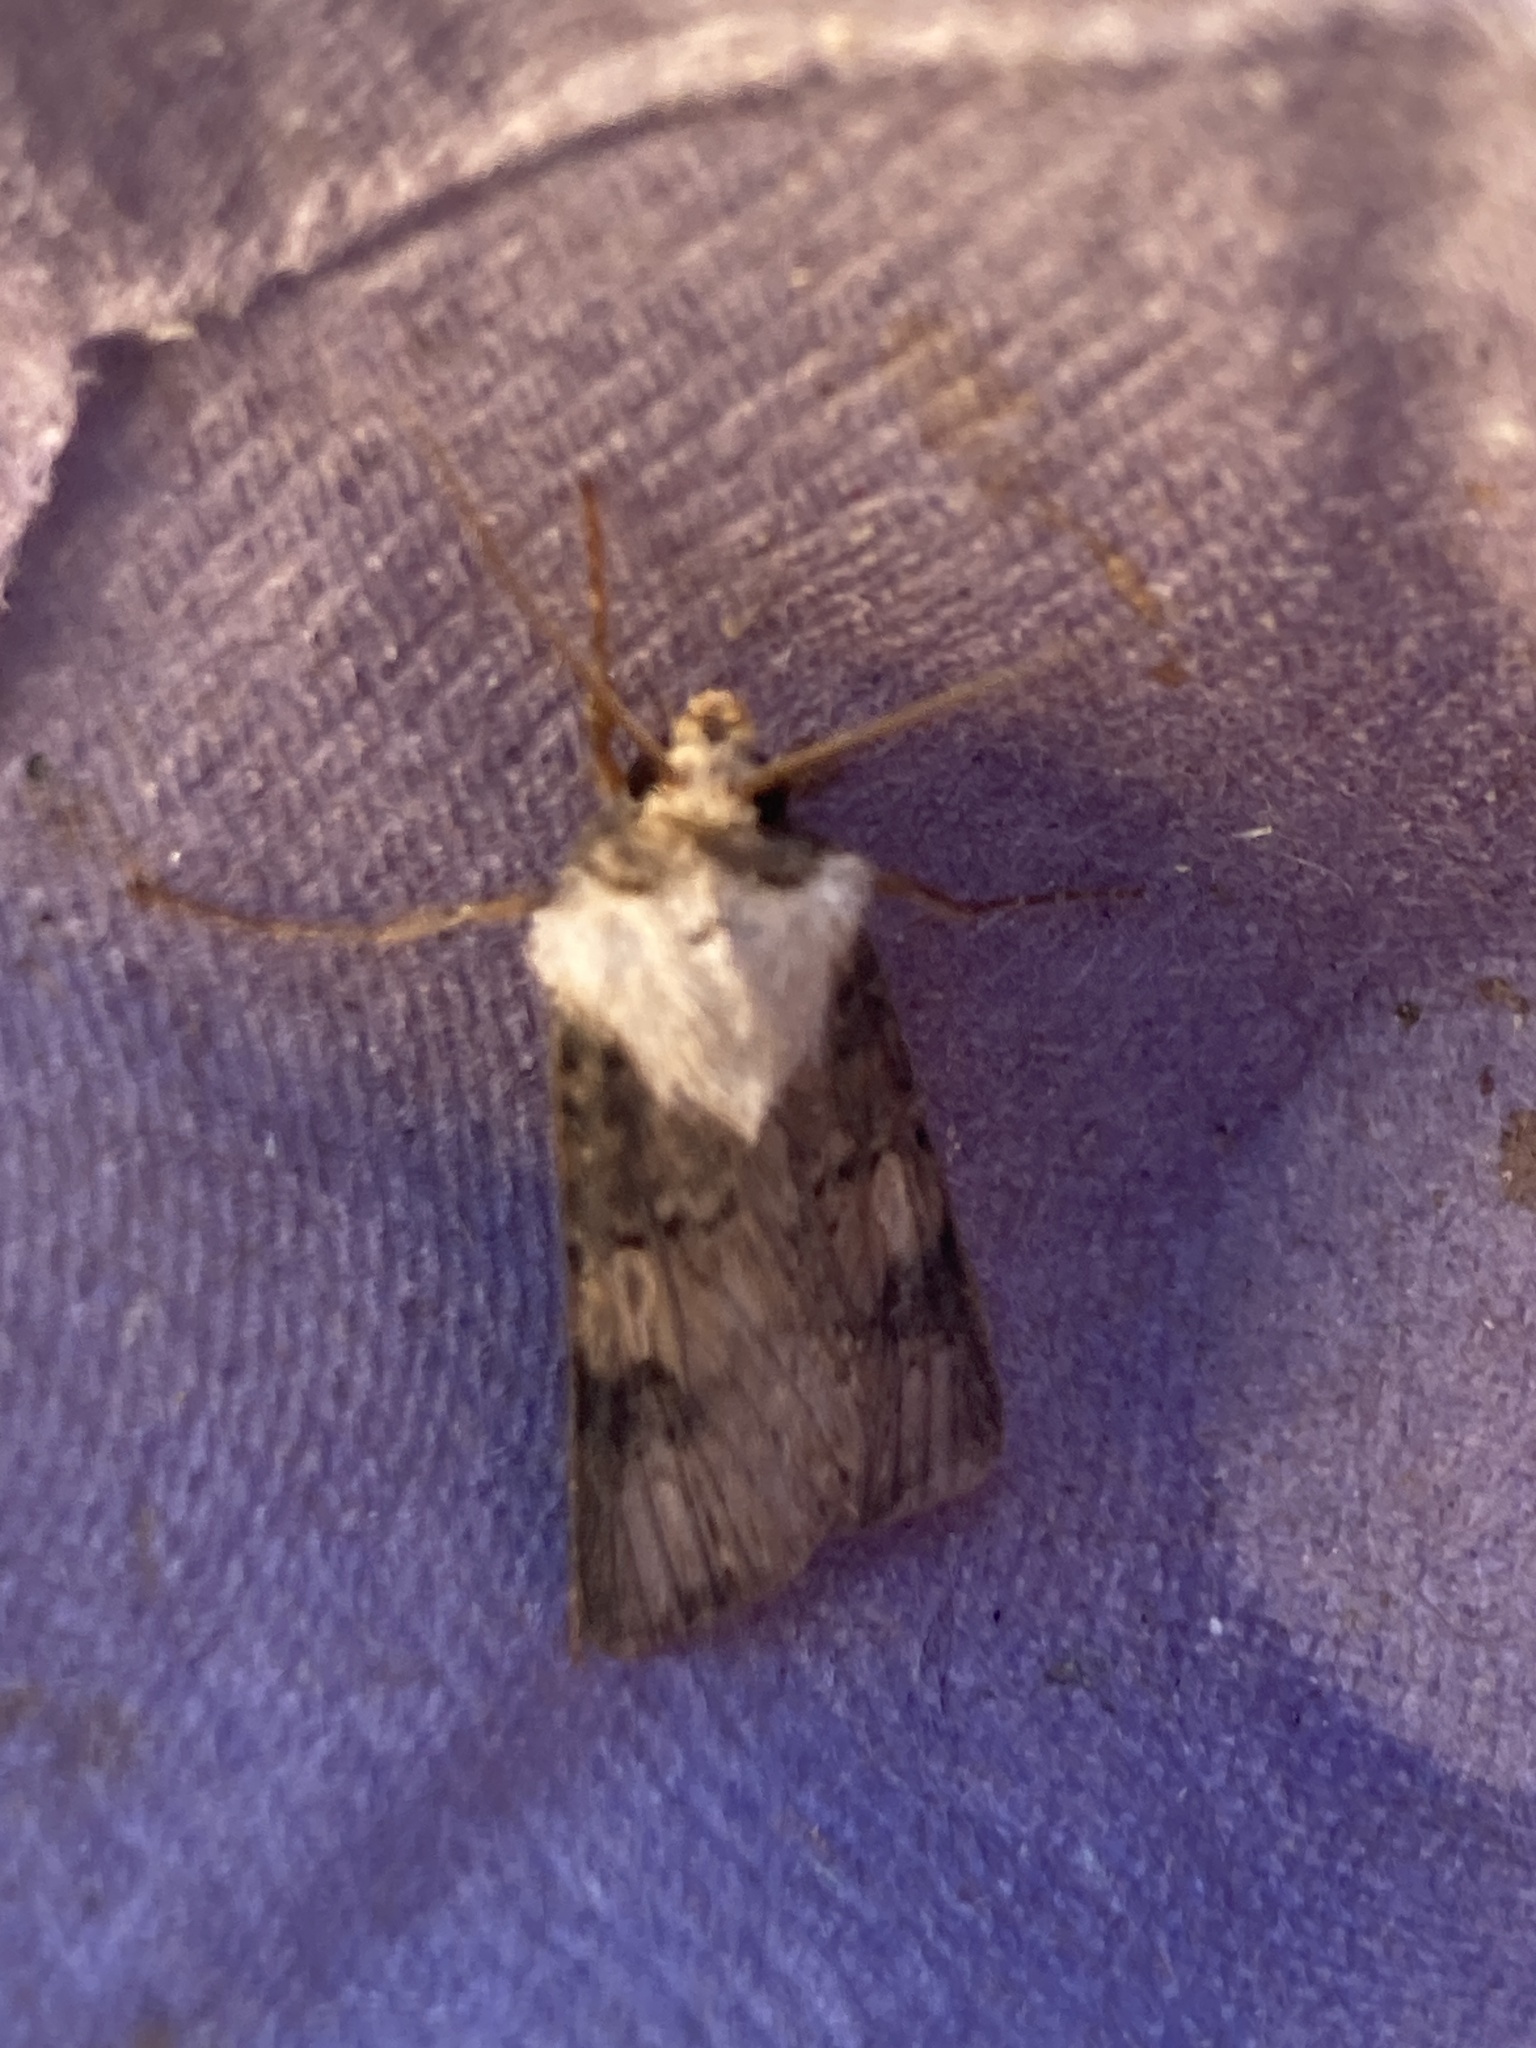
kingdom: Animalia
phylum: Arthropoda
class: Insecta
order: Lepidoptera
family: Noctuidae
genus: Agrotis
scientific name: Agrotis puta
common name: Shuttle-shaped dart
